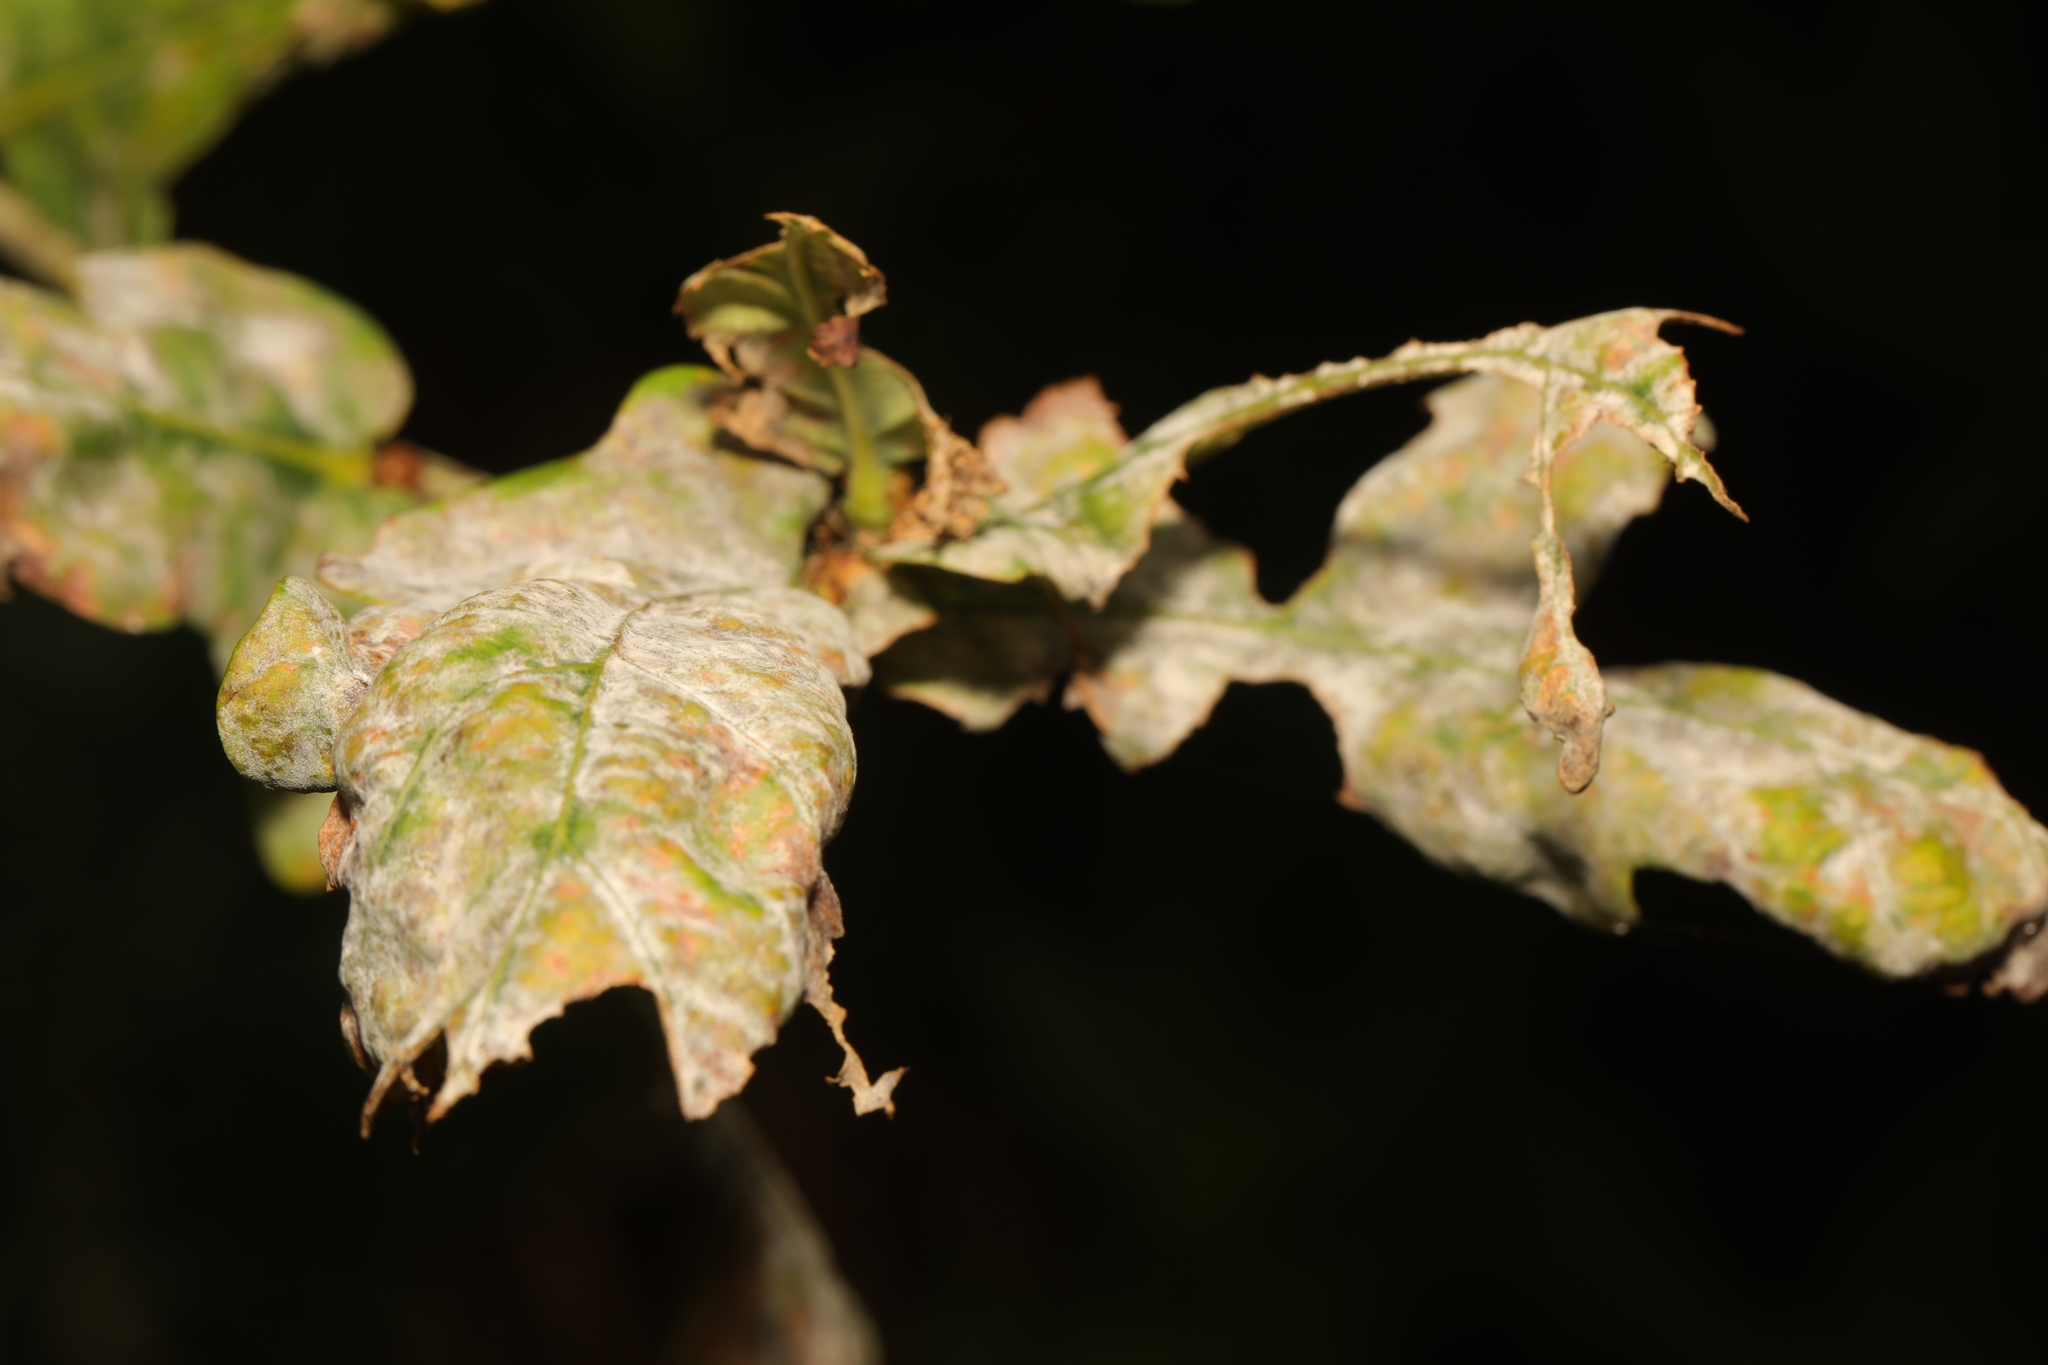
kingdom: Fungi
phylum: Ascomycota
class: Leotiomycetes
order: Helotiales
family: Erysiphaceae
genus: Erysiphe
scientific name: Erysiphe alphitoides
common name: Oak mildew
